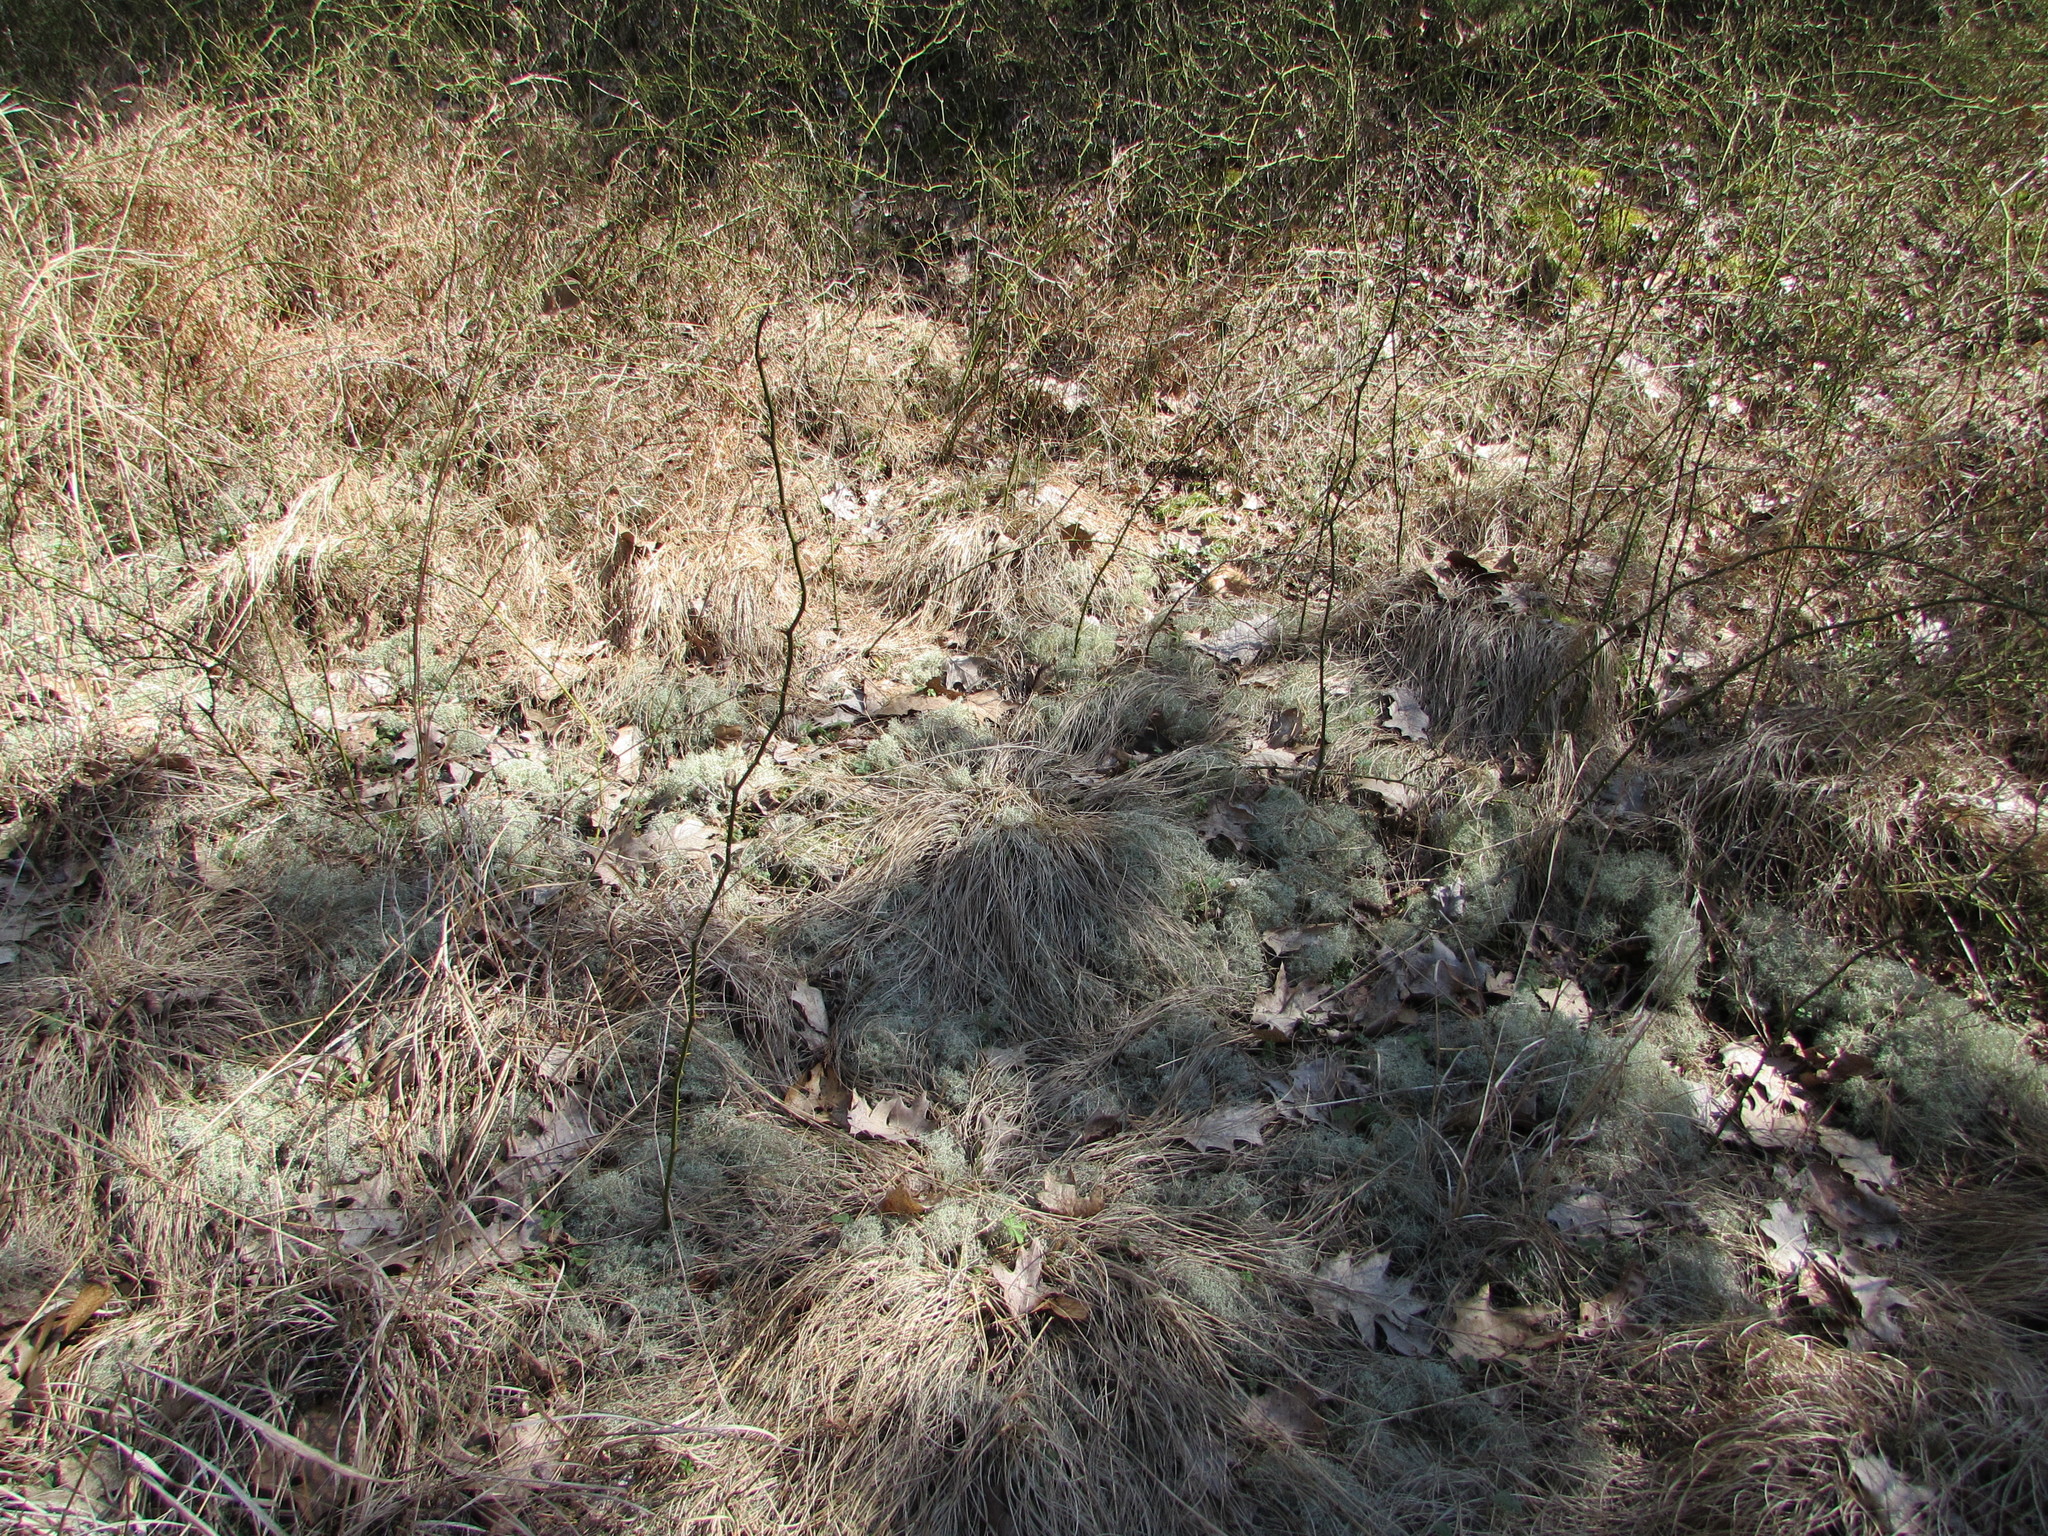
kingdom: Plantae
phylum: Tracheophyta
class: Liliopsida
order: Poales
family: Poaceae
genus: Sporobolus
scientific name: Sporobolus heterolepis
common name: Prairie dropseed
